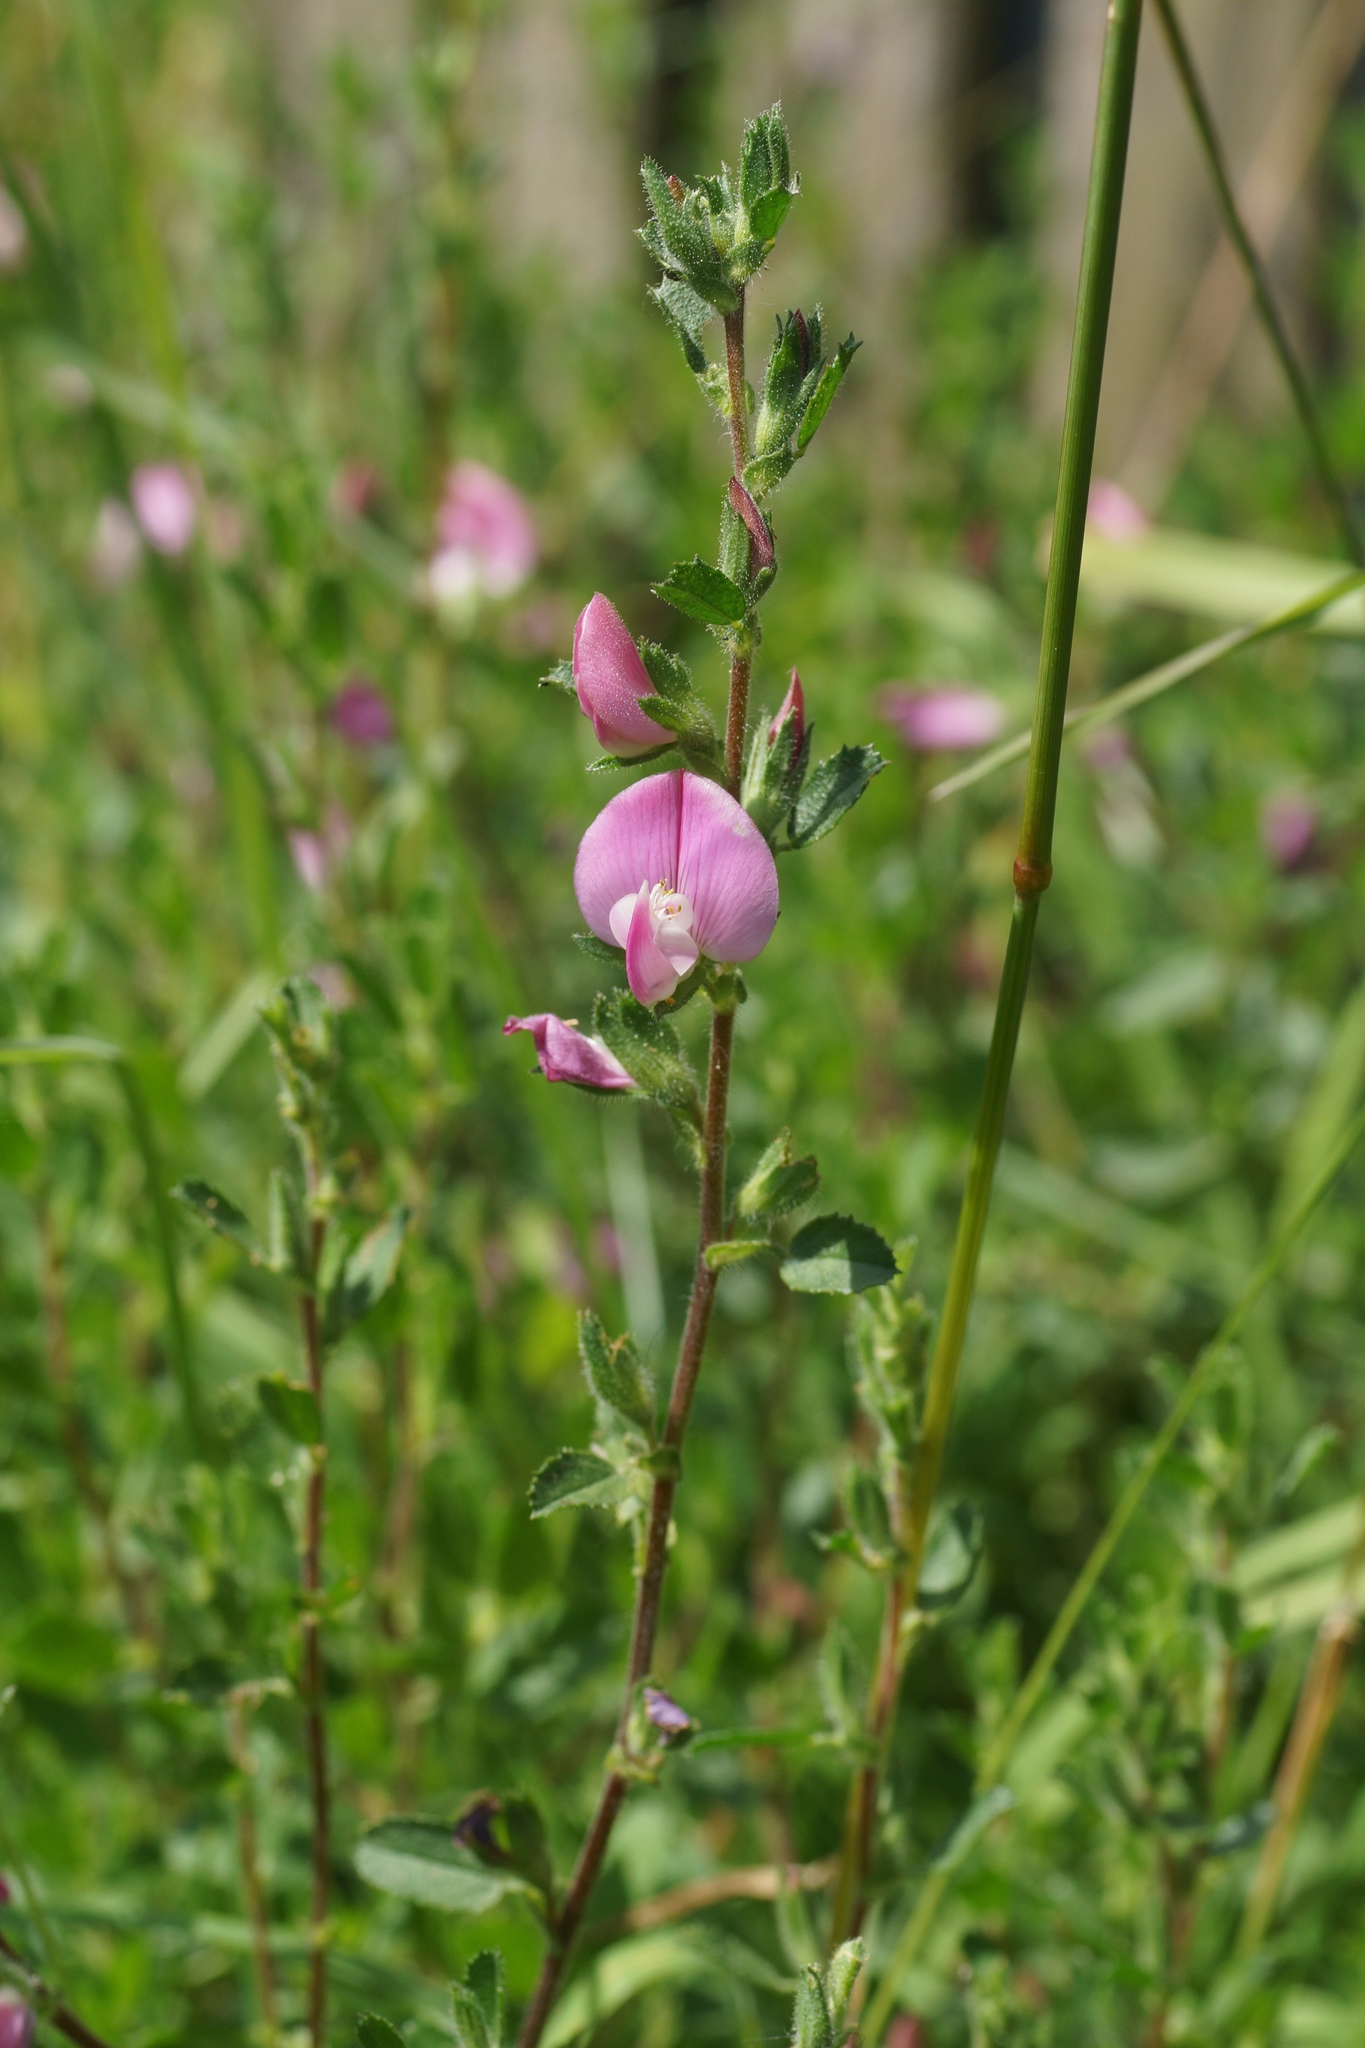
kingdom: Plantae
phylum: Tracheophyta
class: Magnoliopsida
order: Fabales
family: Fabaceae
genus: Ononis
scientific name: Ononis spinosa
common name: Spiny restharrow
